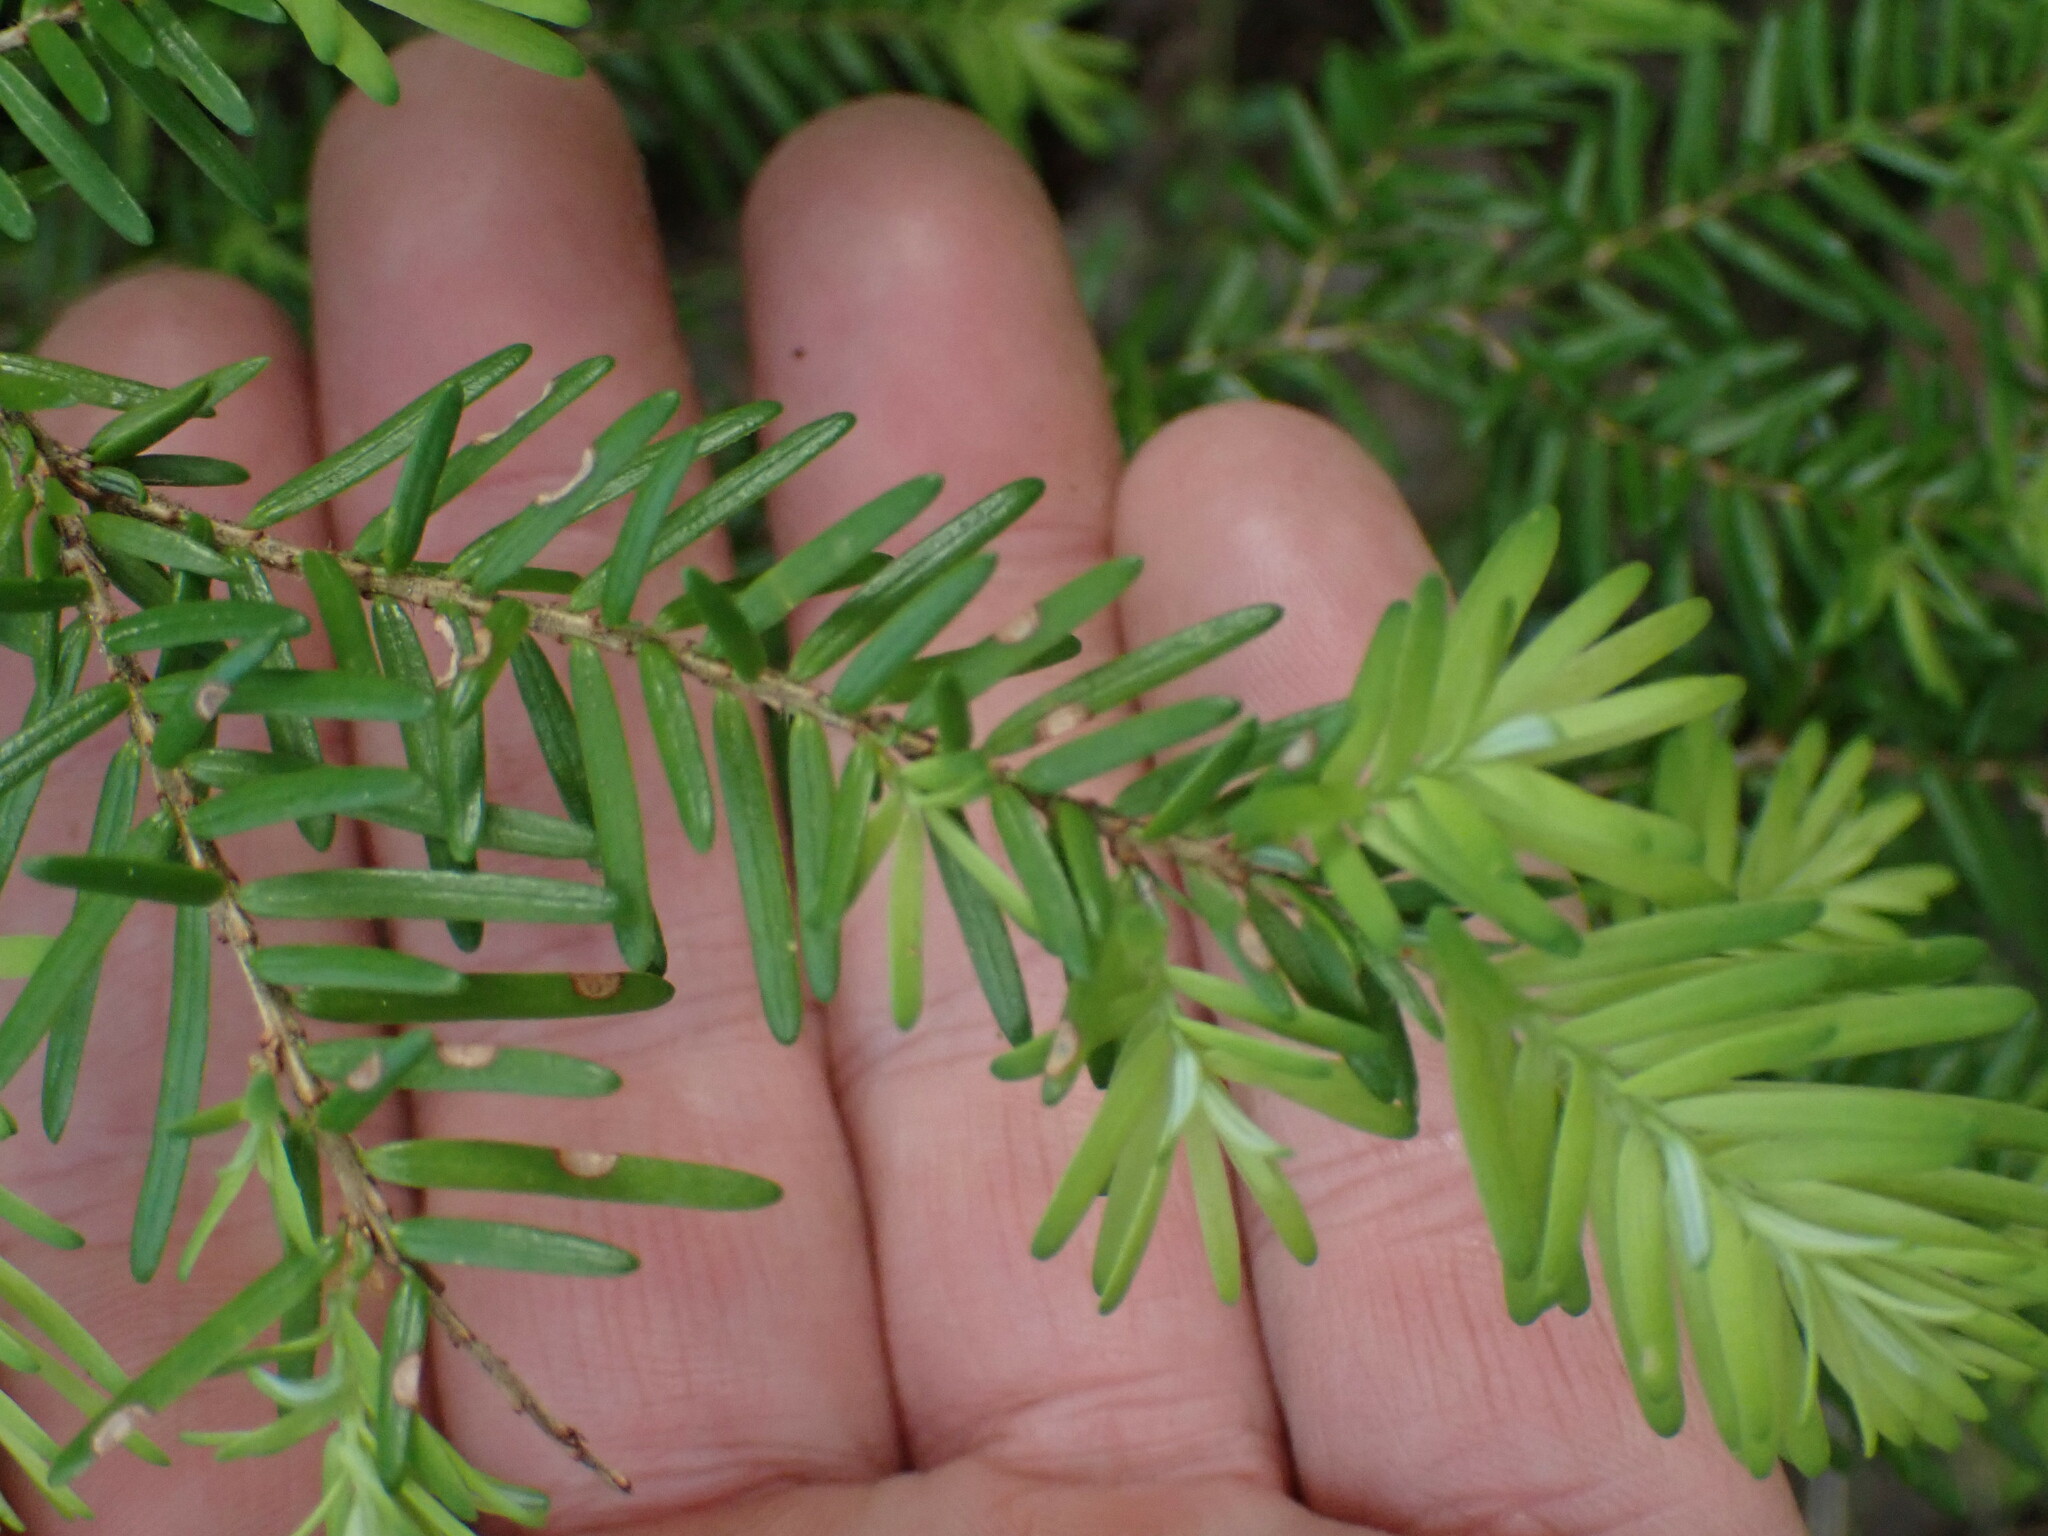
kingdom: Plantae
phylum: Tracheophyta
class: Pinopsida
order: Pinales
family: Pinaceae
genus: Tsuga
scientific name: Tsuga heterophylla
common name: Western hemlock
